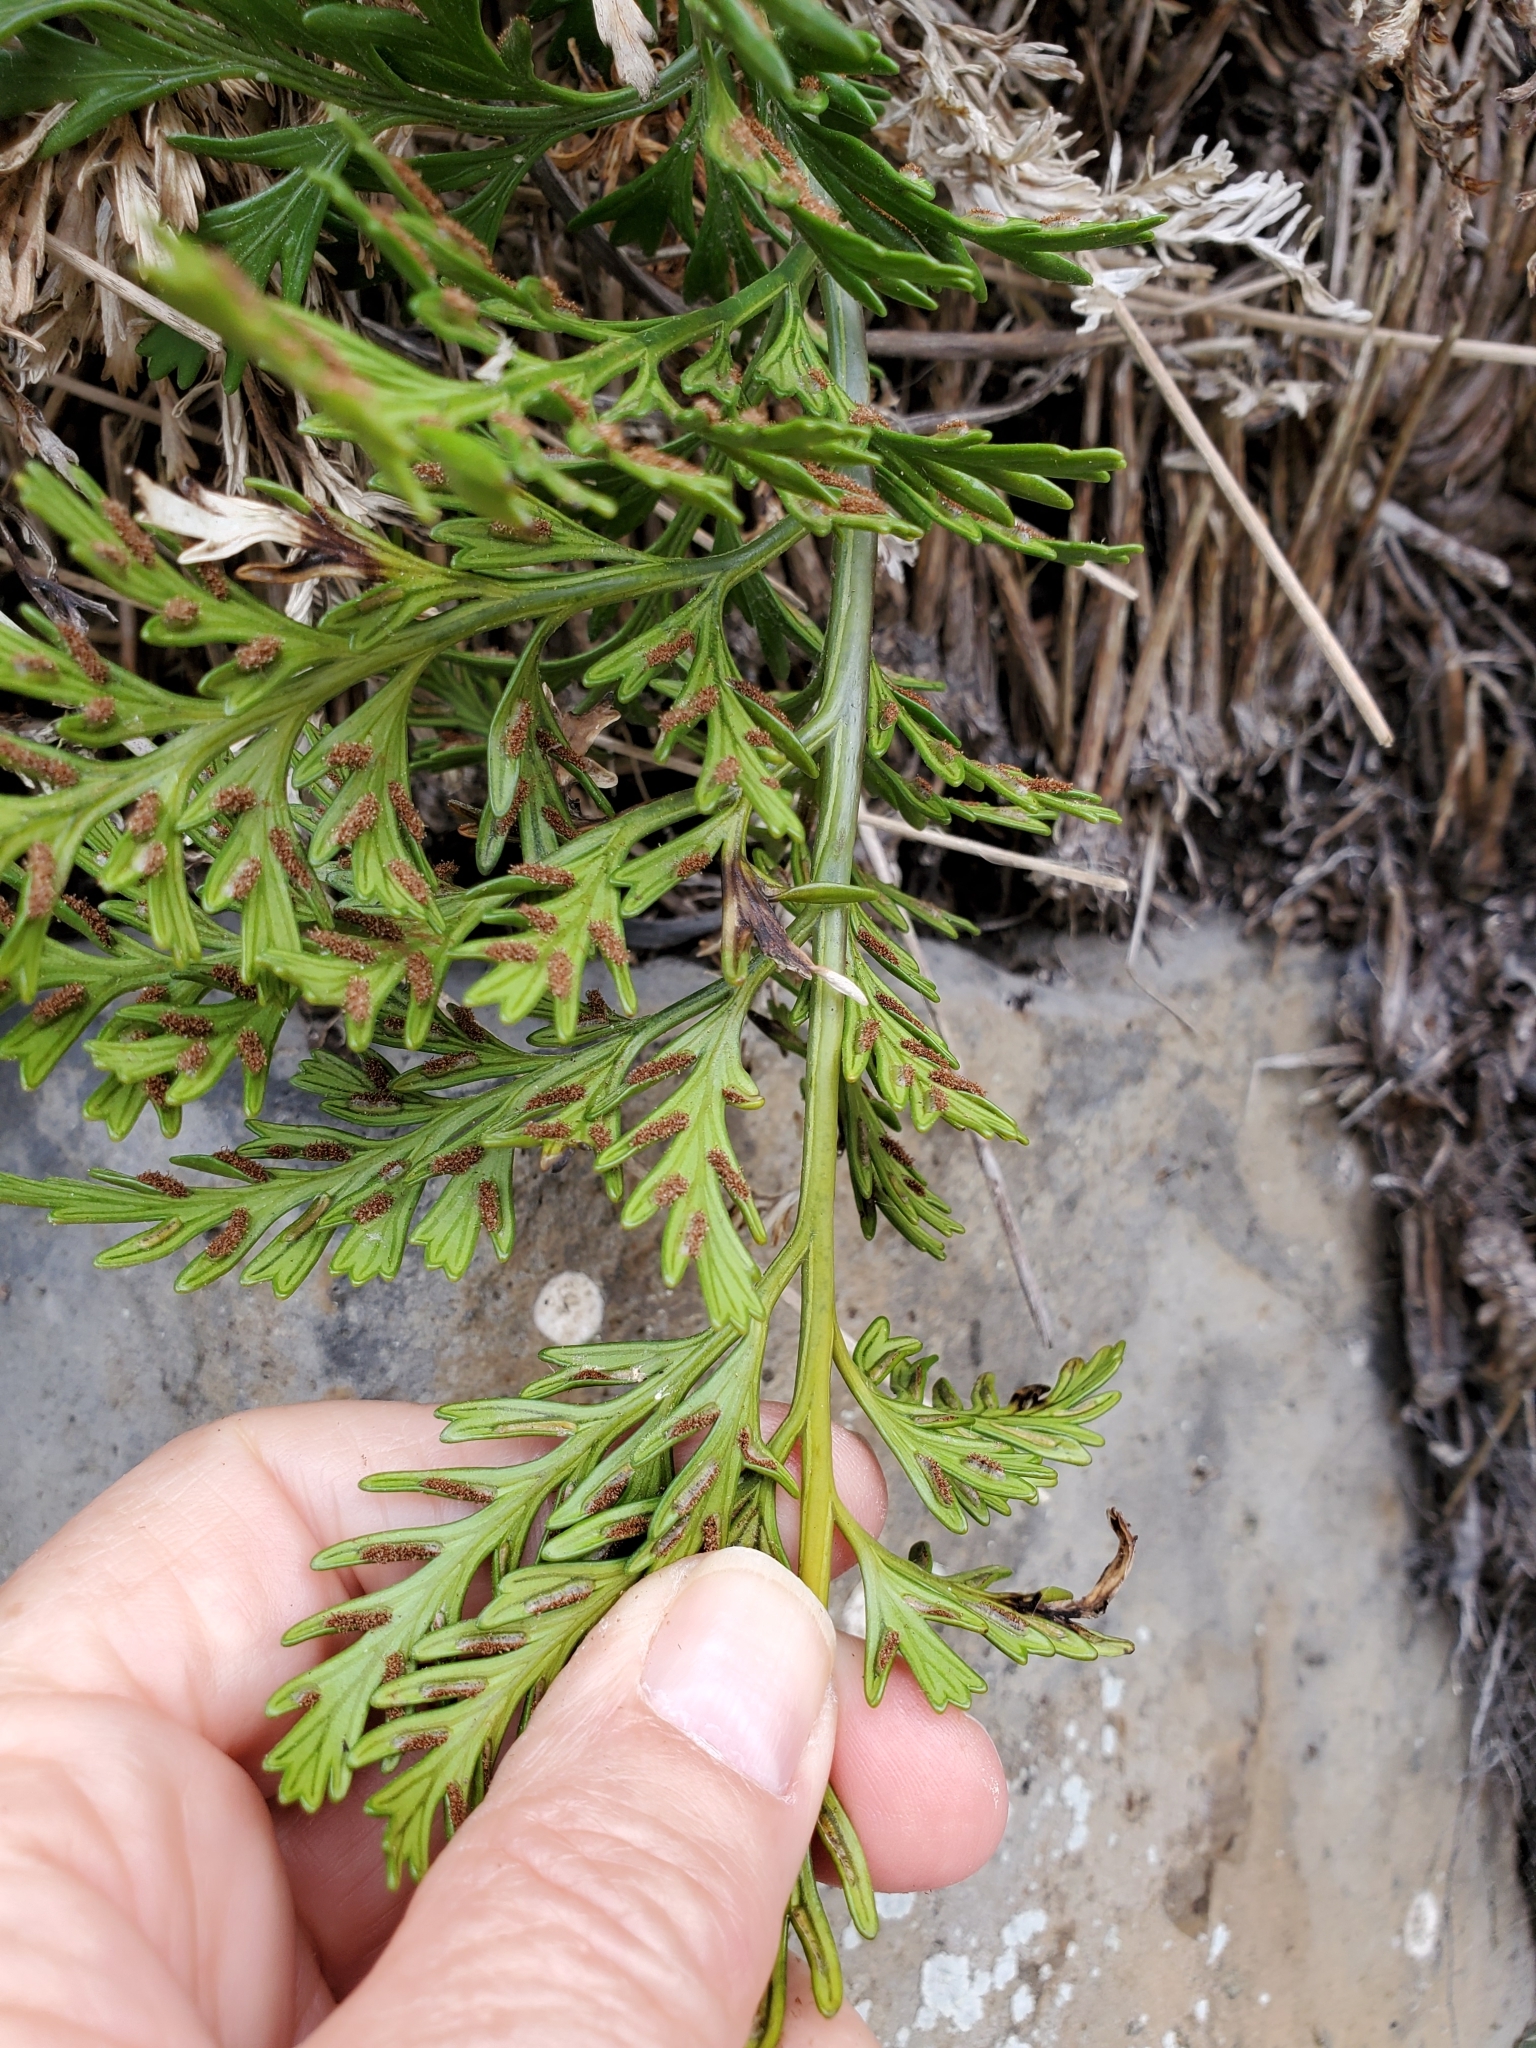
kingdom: Plantae
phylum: Tracheophyta
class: Polypodiopsida
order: Polypodiales
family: Aspleniaceae
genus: Asplenium
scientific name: Asplenium chathamense
